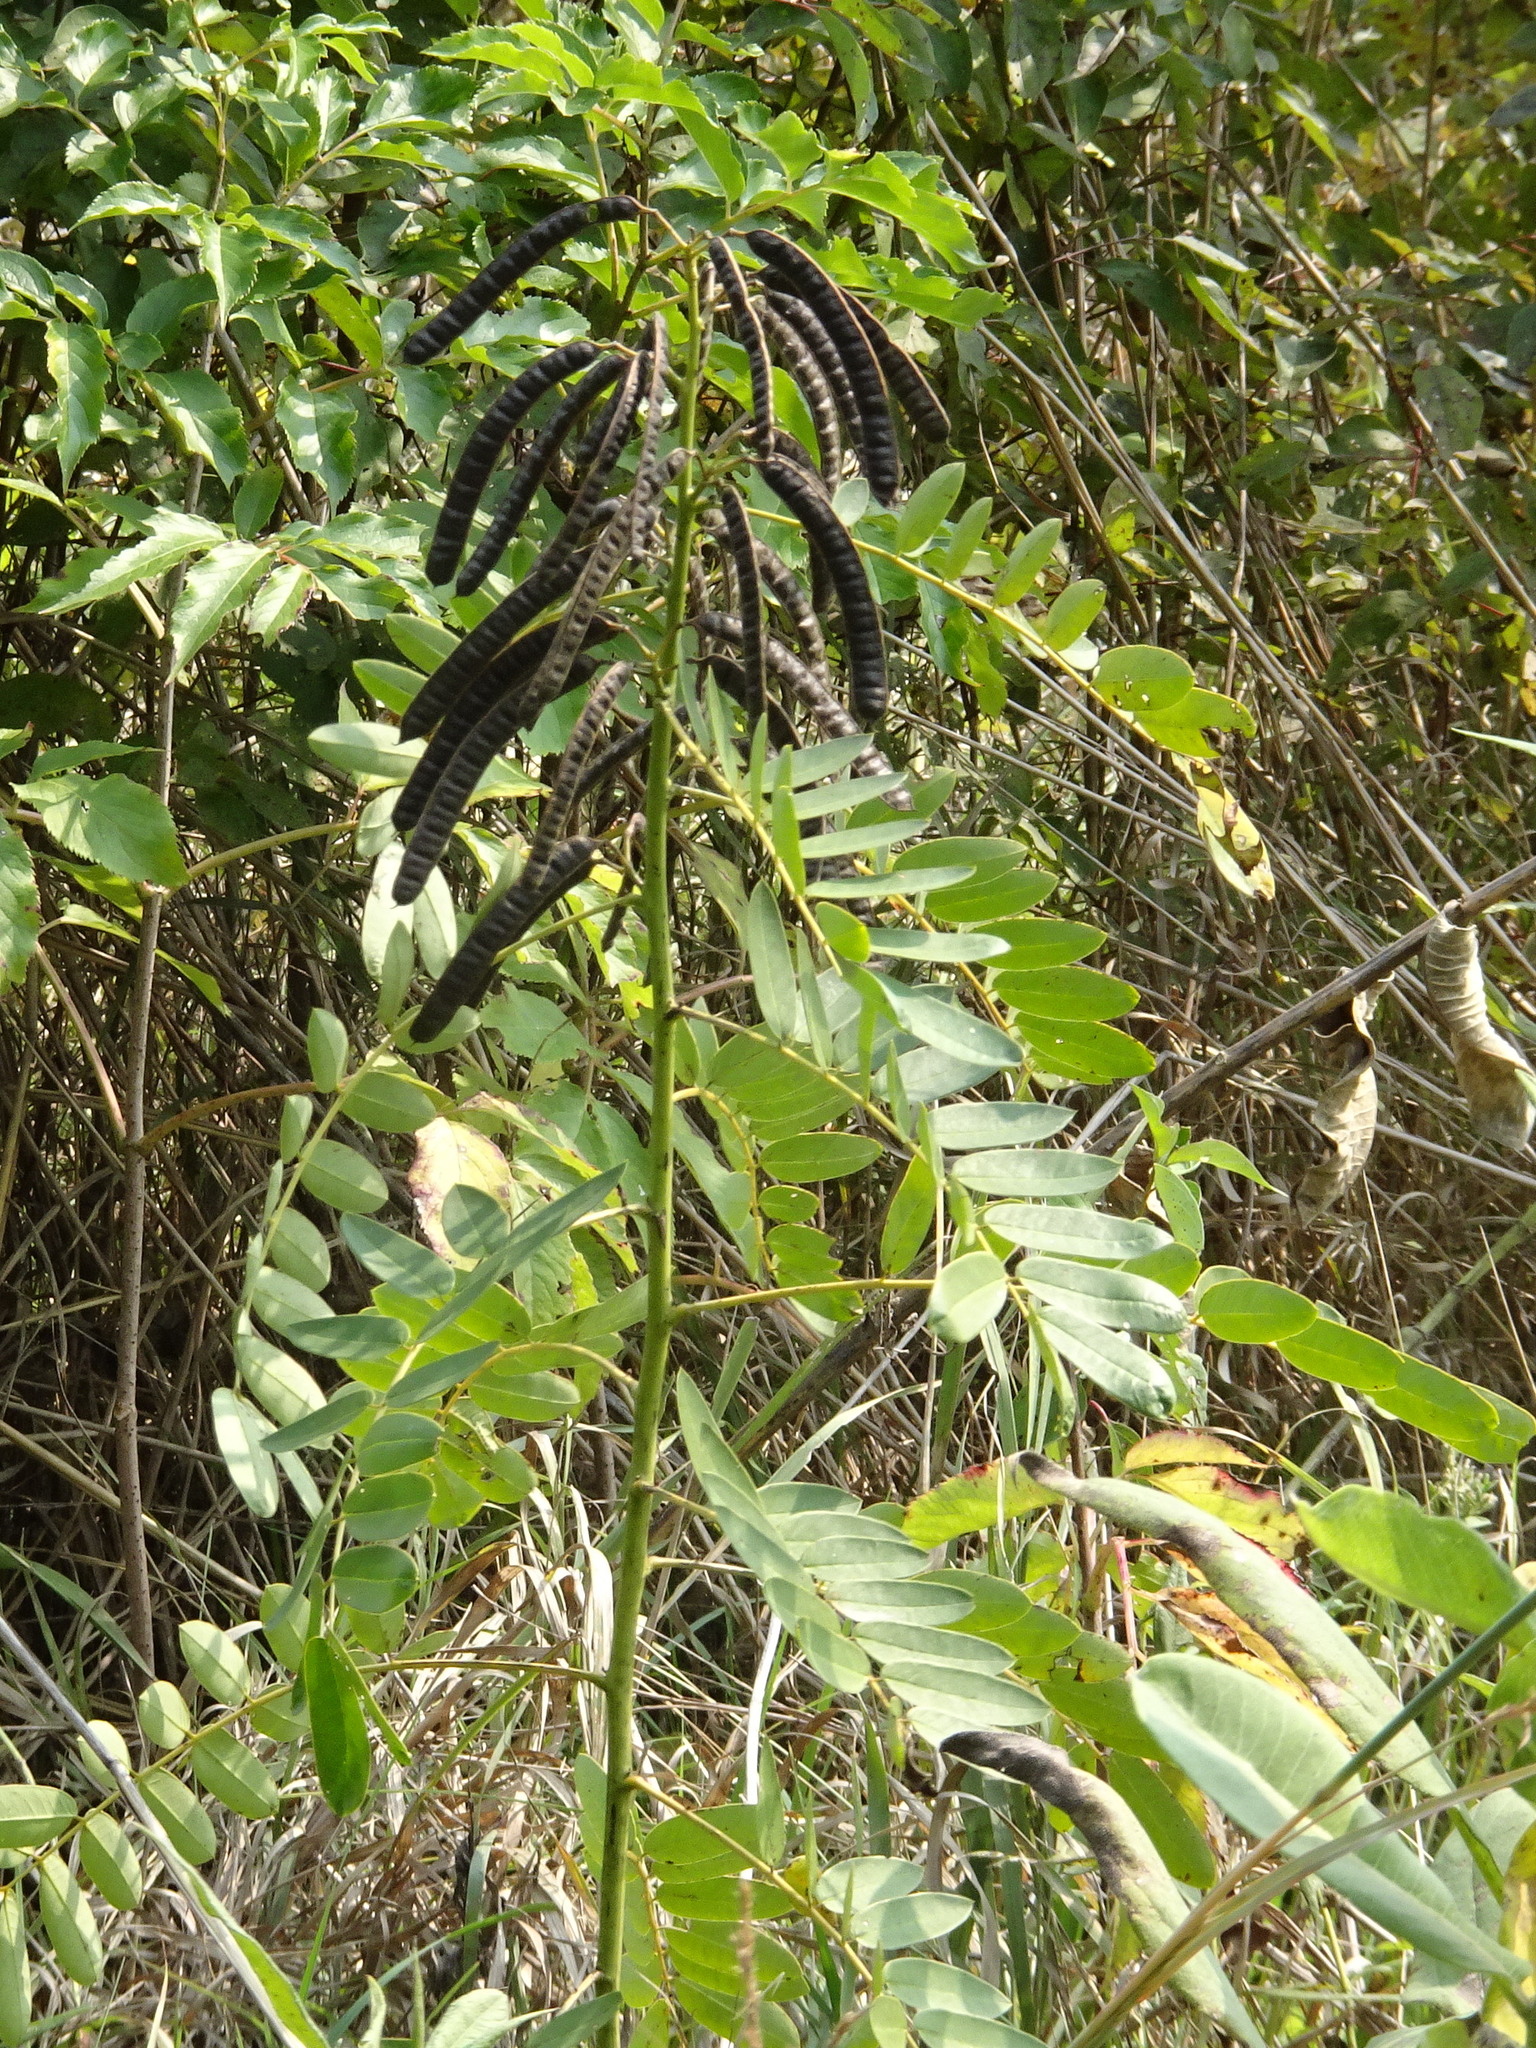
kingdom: Plantae
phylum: Tracheophyta
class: Magnoliopsida
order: Fabales
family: Fabaceae
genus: Senna
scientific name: Senna marilandica
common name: American senna
